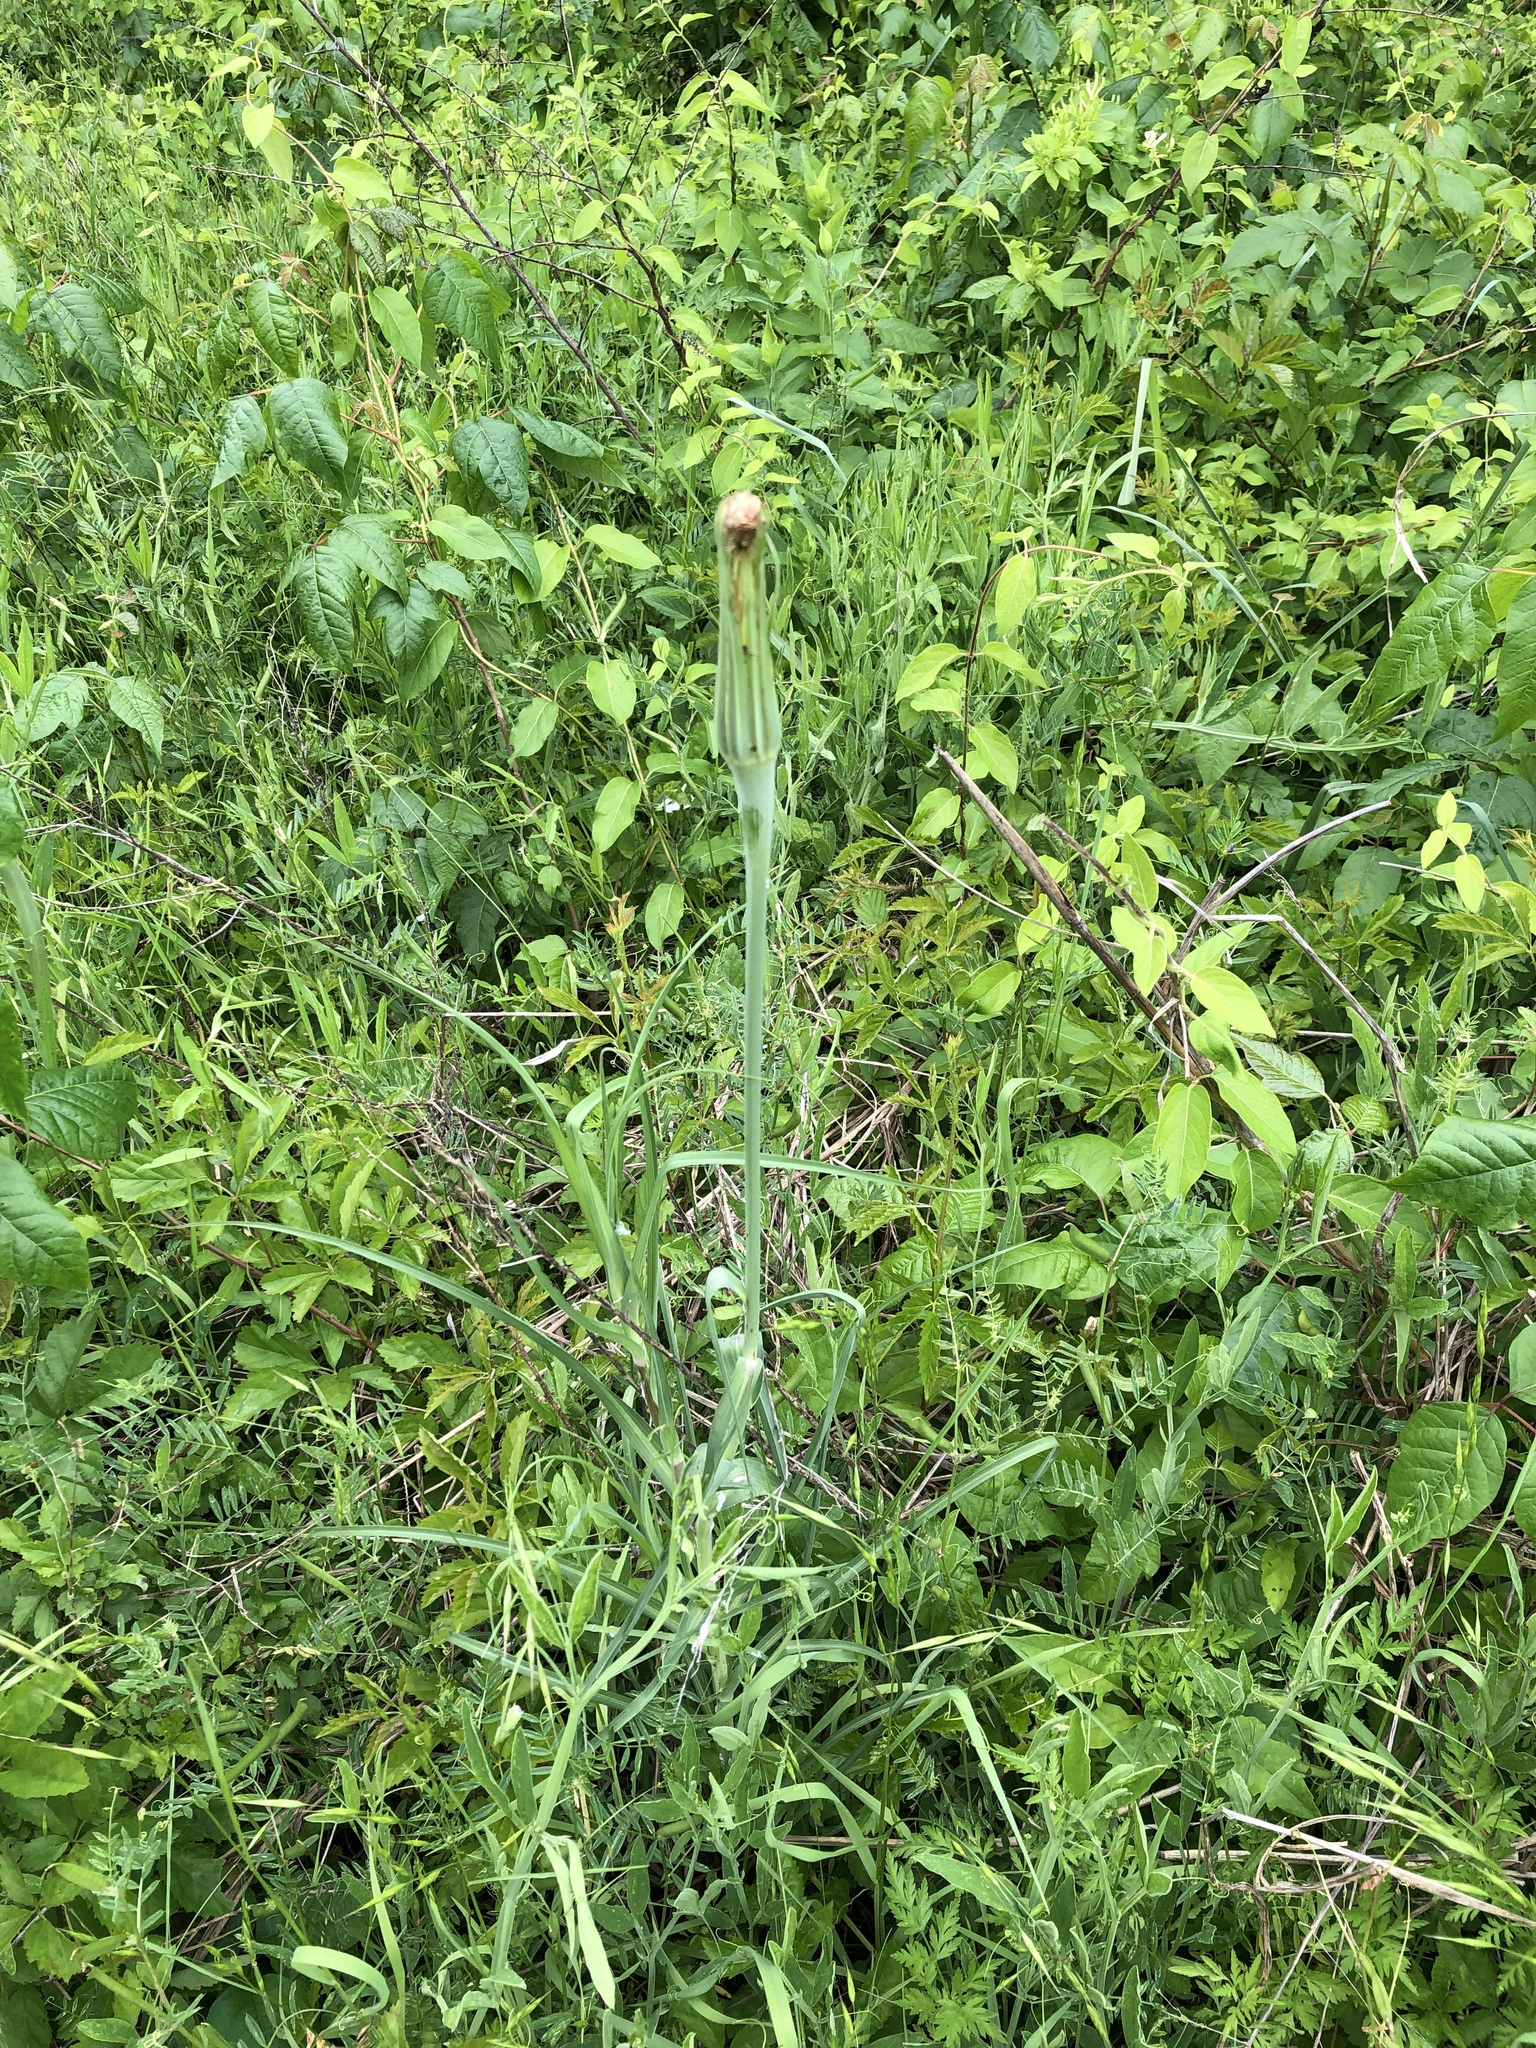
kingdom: Plantae
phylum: Tracheophyta
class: Magnoliopsida
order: Asterales
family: Asteraceae
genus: Tragopogon
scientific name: Tragopogon dubius
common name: Yellow salsify
